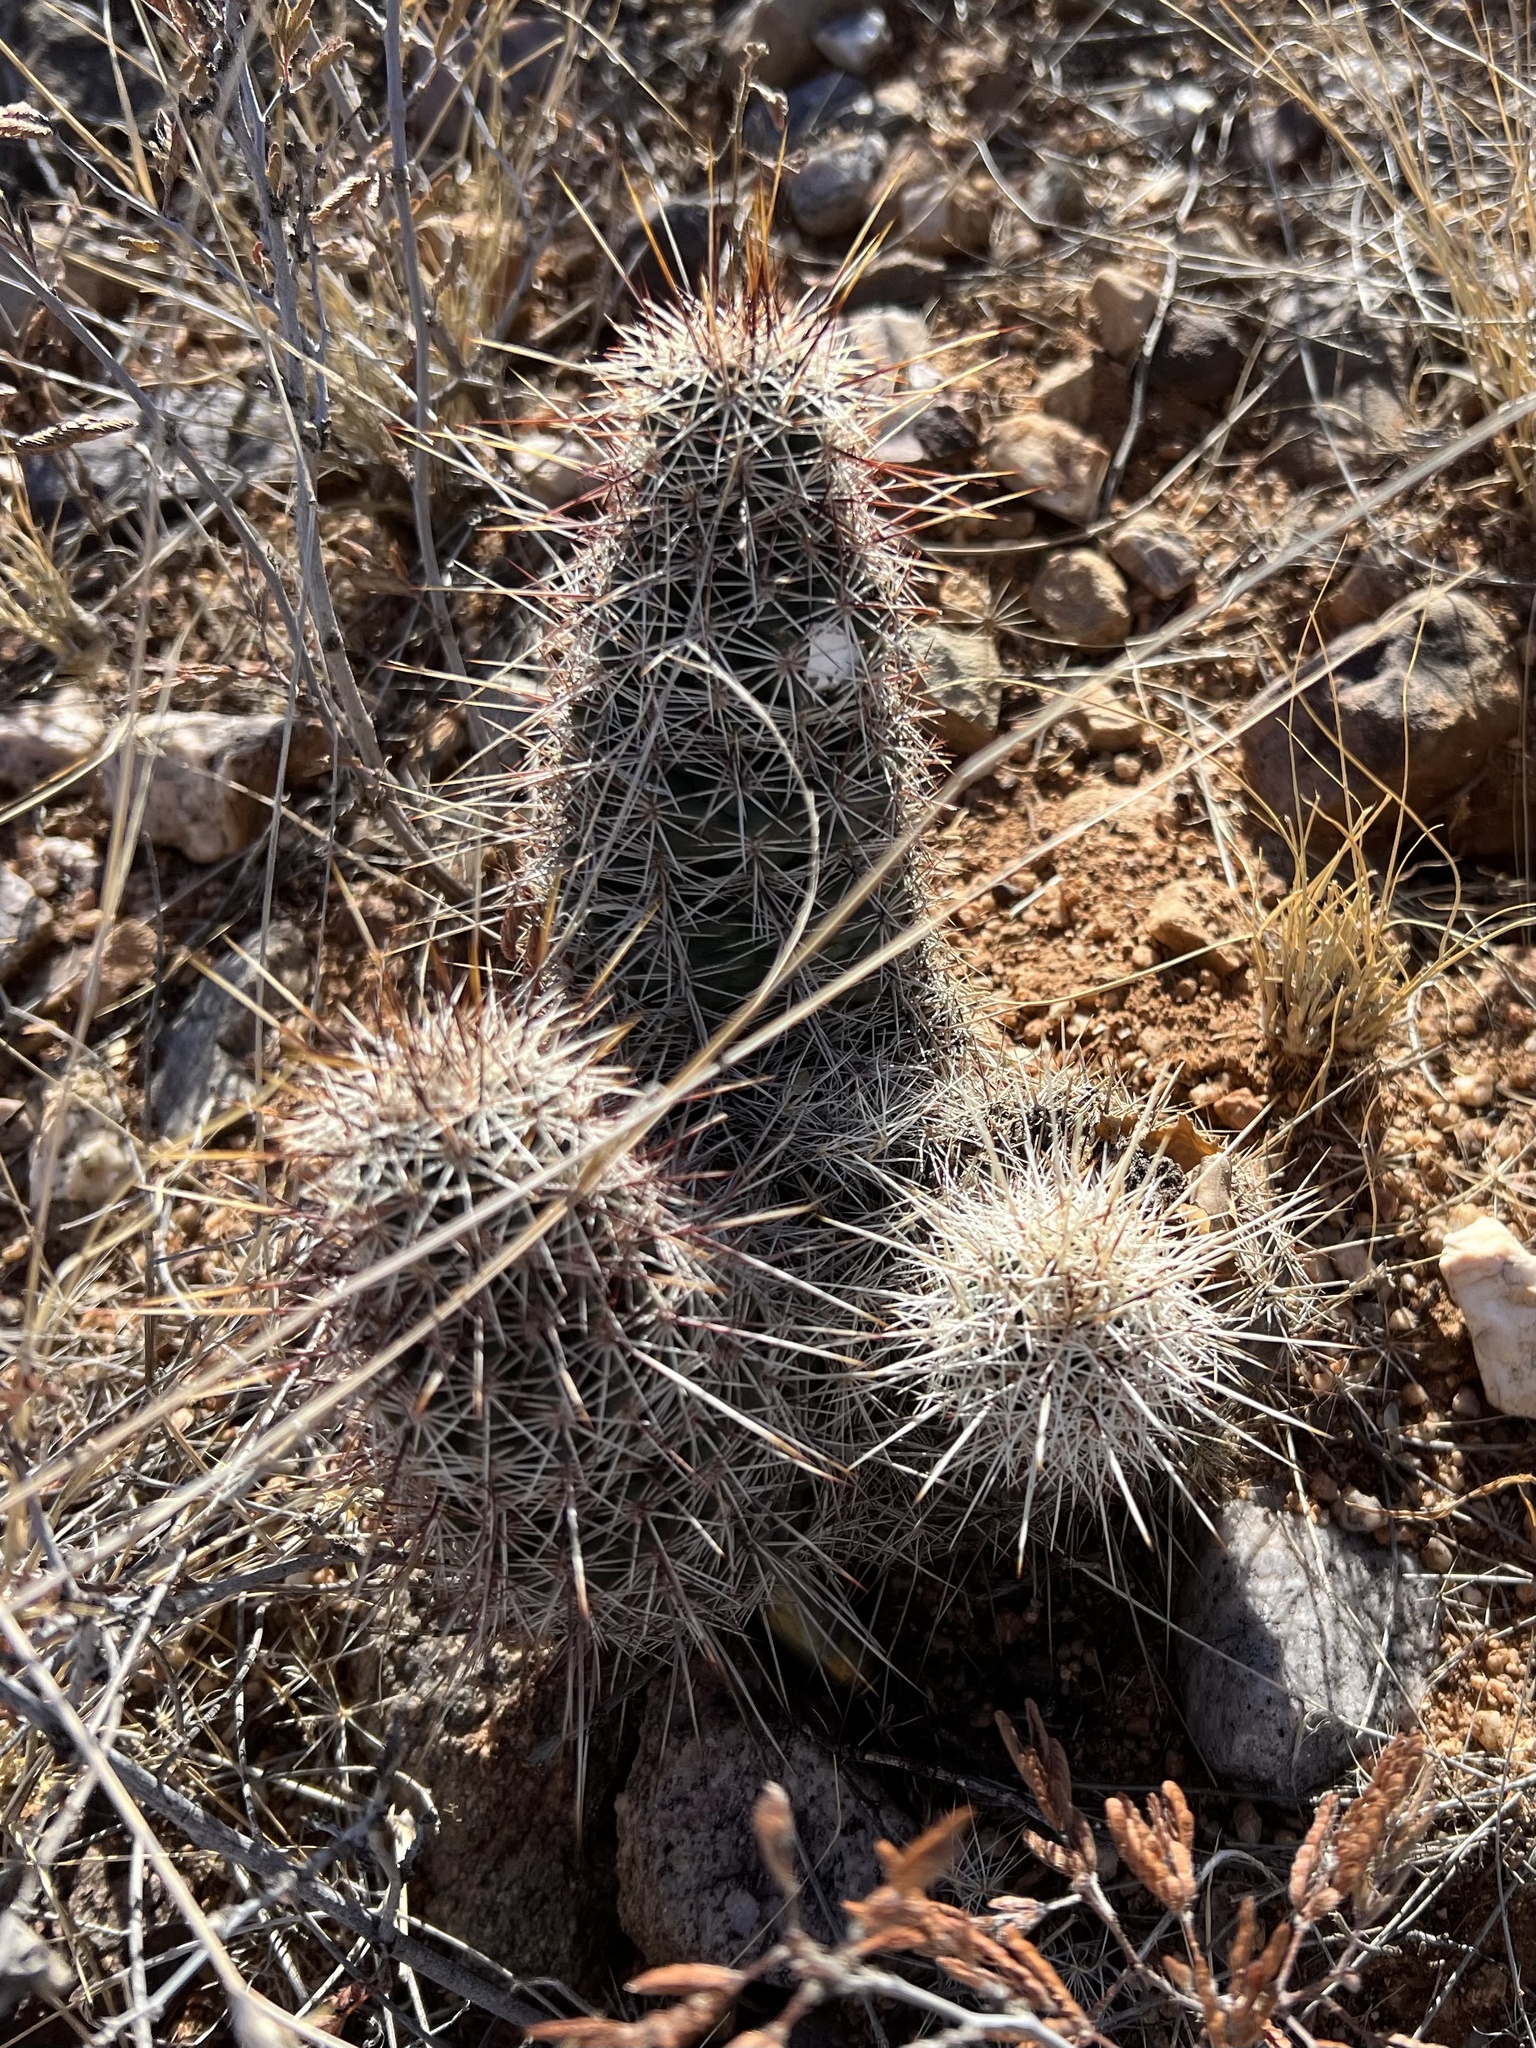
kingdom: Plantae
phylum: Tracheophyta
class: Magnoliopsida
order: Caryophyllales
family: Cactaceae
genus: Echinocereus
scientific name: Echinocereus fasciculatus
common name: Bundle hedgehog
